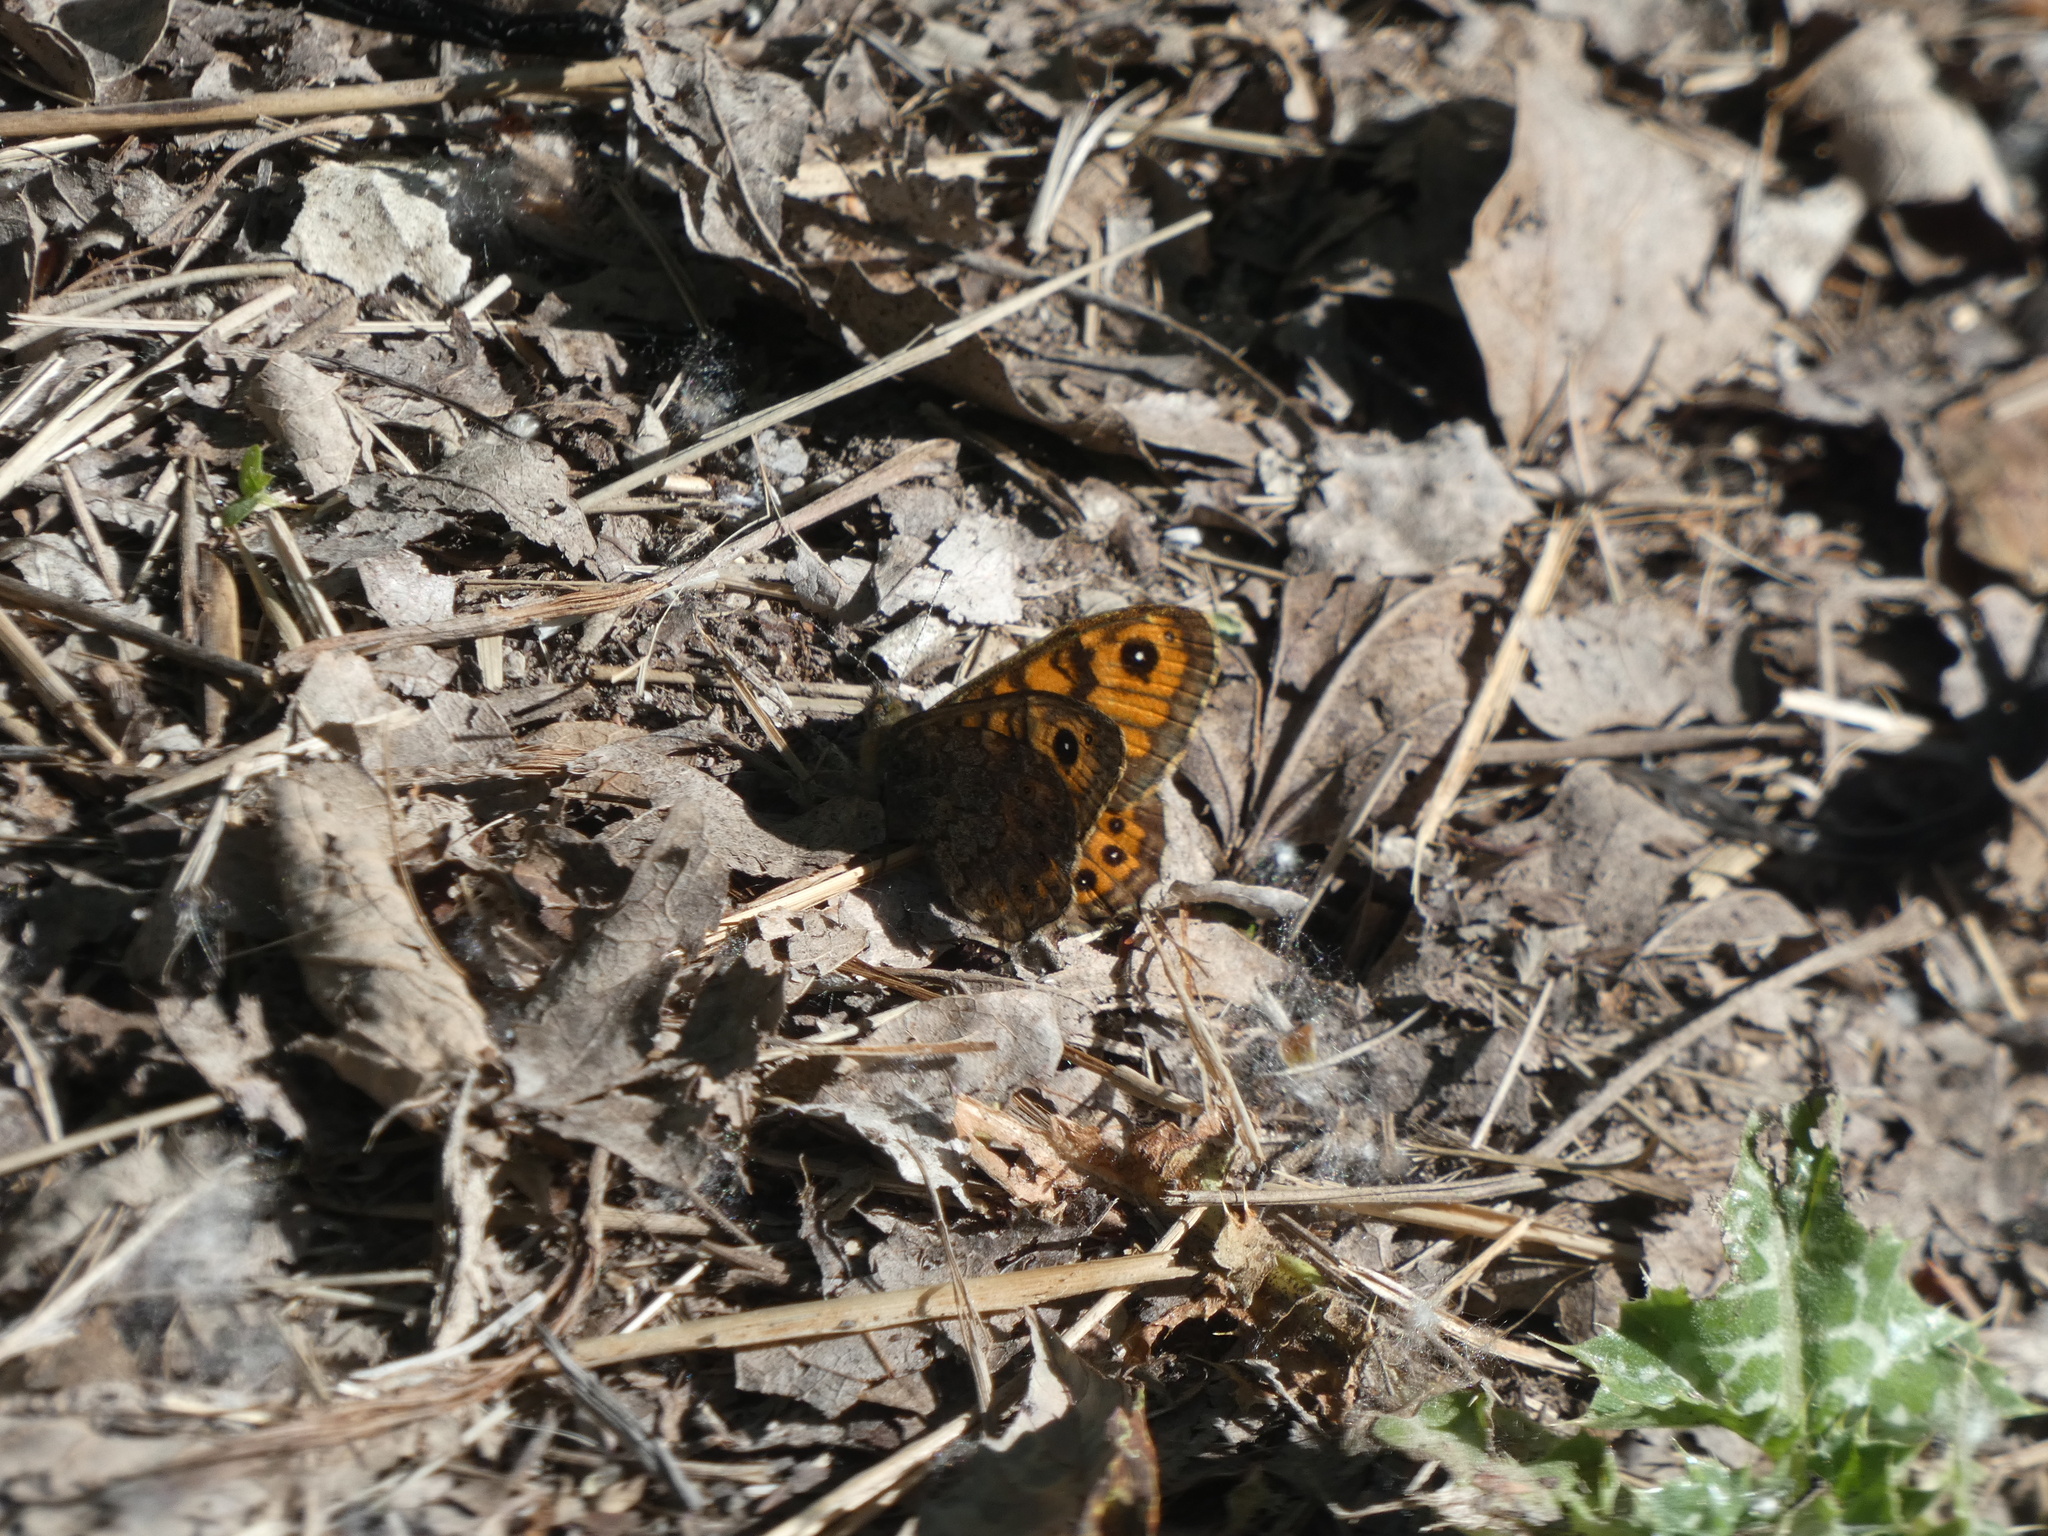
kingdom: Animalia
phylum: Arthropoda
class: Insecta
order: Lepidoptera
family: Nymphalidae
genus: Pararge
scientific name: Pararge Lasiommata megera
